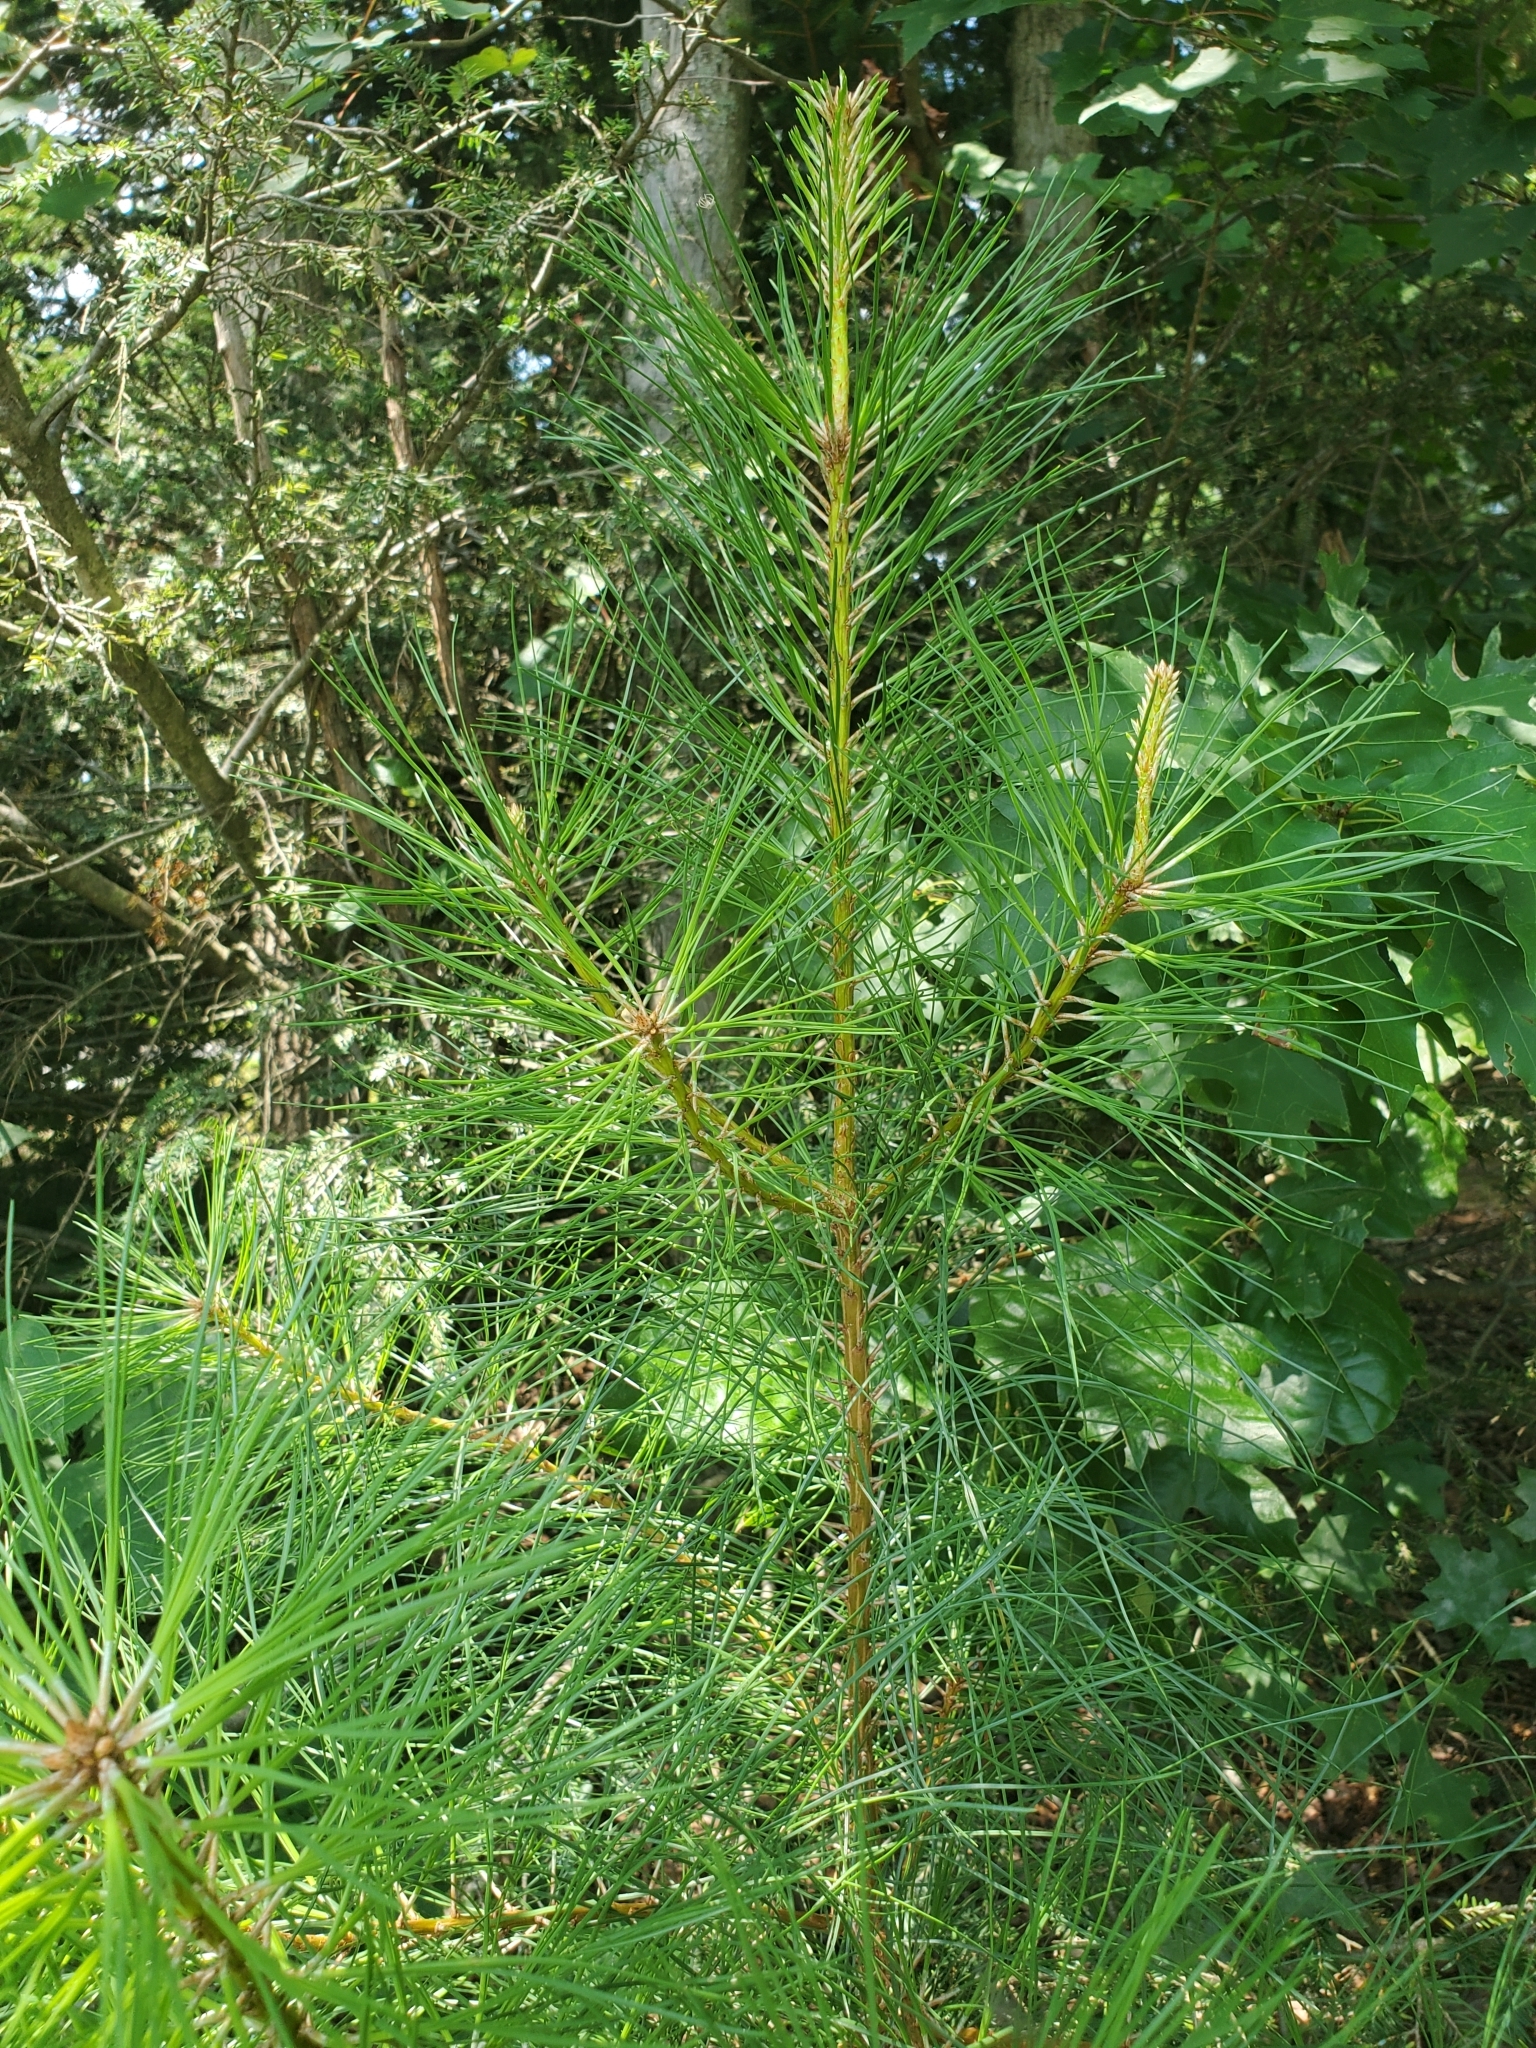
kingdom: Plantae
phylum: Tracheophyta
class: Pinopsida
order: Pinales
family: Pinaceae
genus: Pinus
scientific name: Pinus taeda
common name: Loblolly pine
